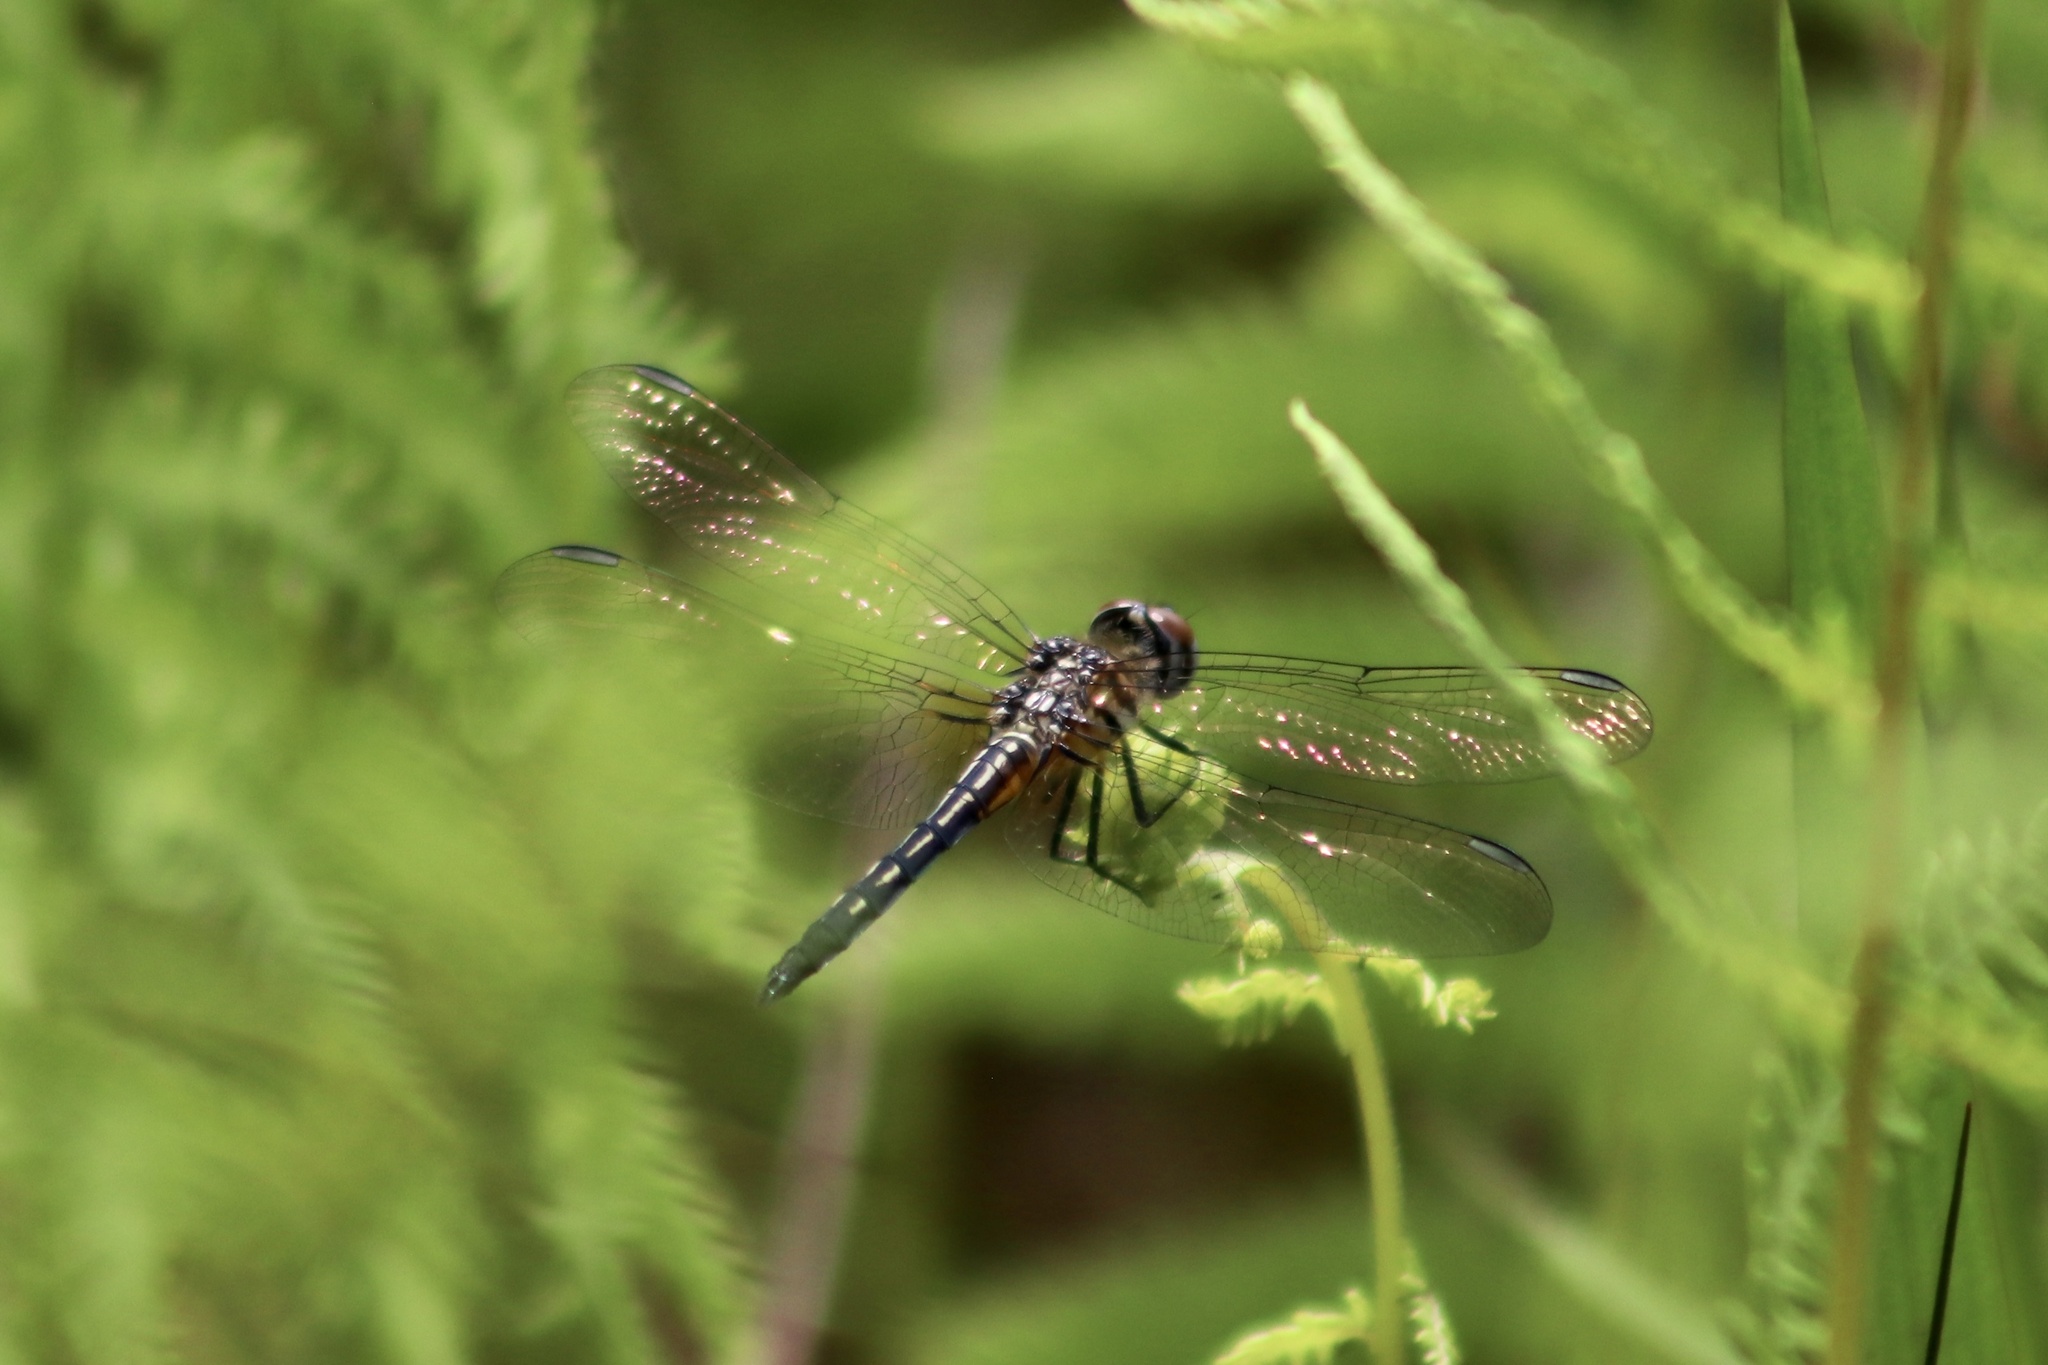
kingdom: Animalia
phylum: Arthropoda
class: Insecta
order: Odonata
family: Libellulidae
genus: Pachydiplax
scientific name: Pachydiplax longipennis
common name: Blue dasher
